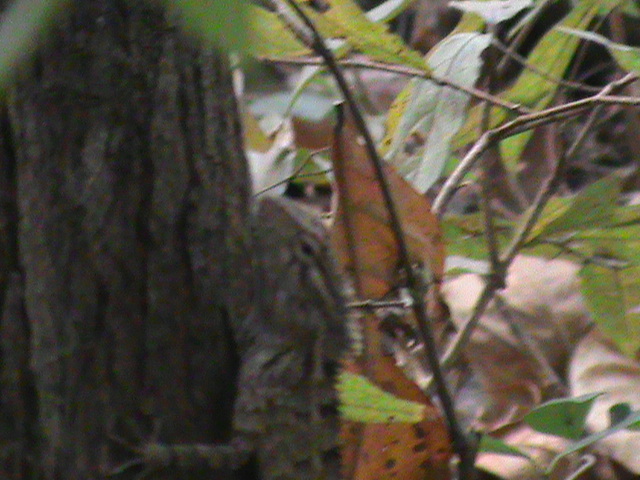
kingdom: Animalia
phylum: Chordata
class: Squamata
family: Agamidae
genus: Calotes
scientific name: Calotes versicolor
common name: Oriental garden lizard
